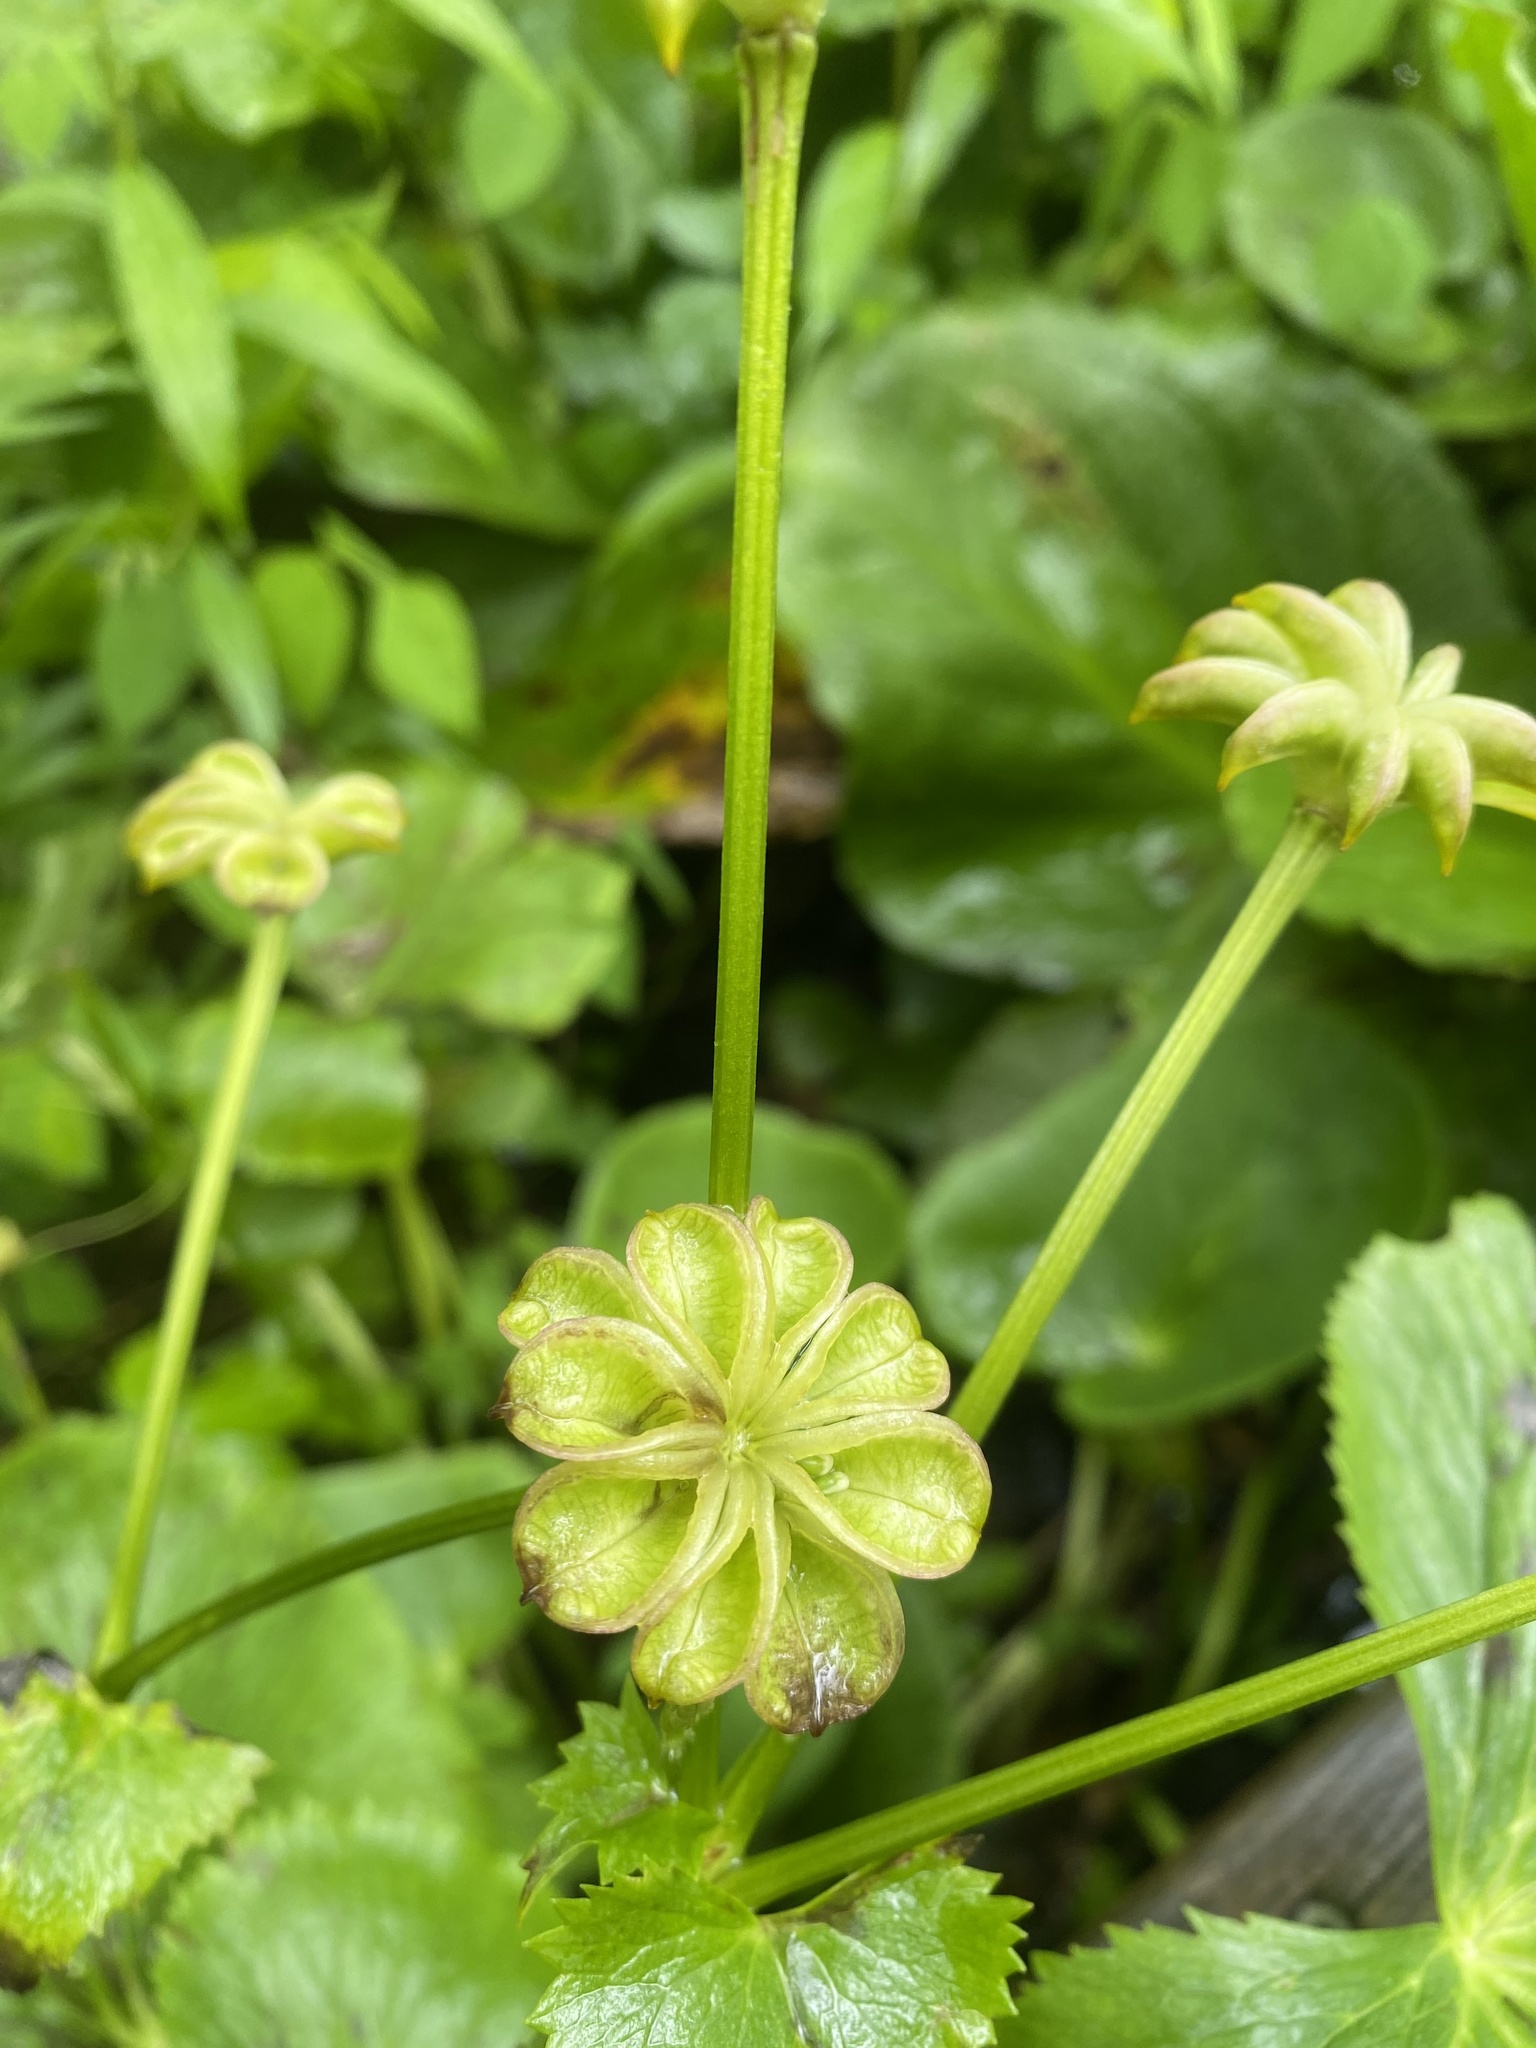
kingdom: Plantae
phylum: Tracheophyta
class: Magnoliopsida
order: Ranunculales
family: Ranunculaceae
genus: Caltha
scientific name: Caltha palustris
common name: Marsh marigold
